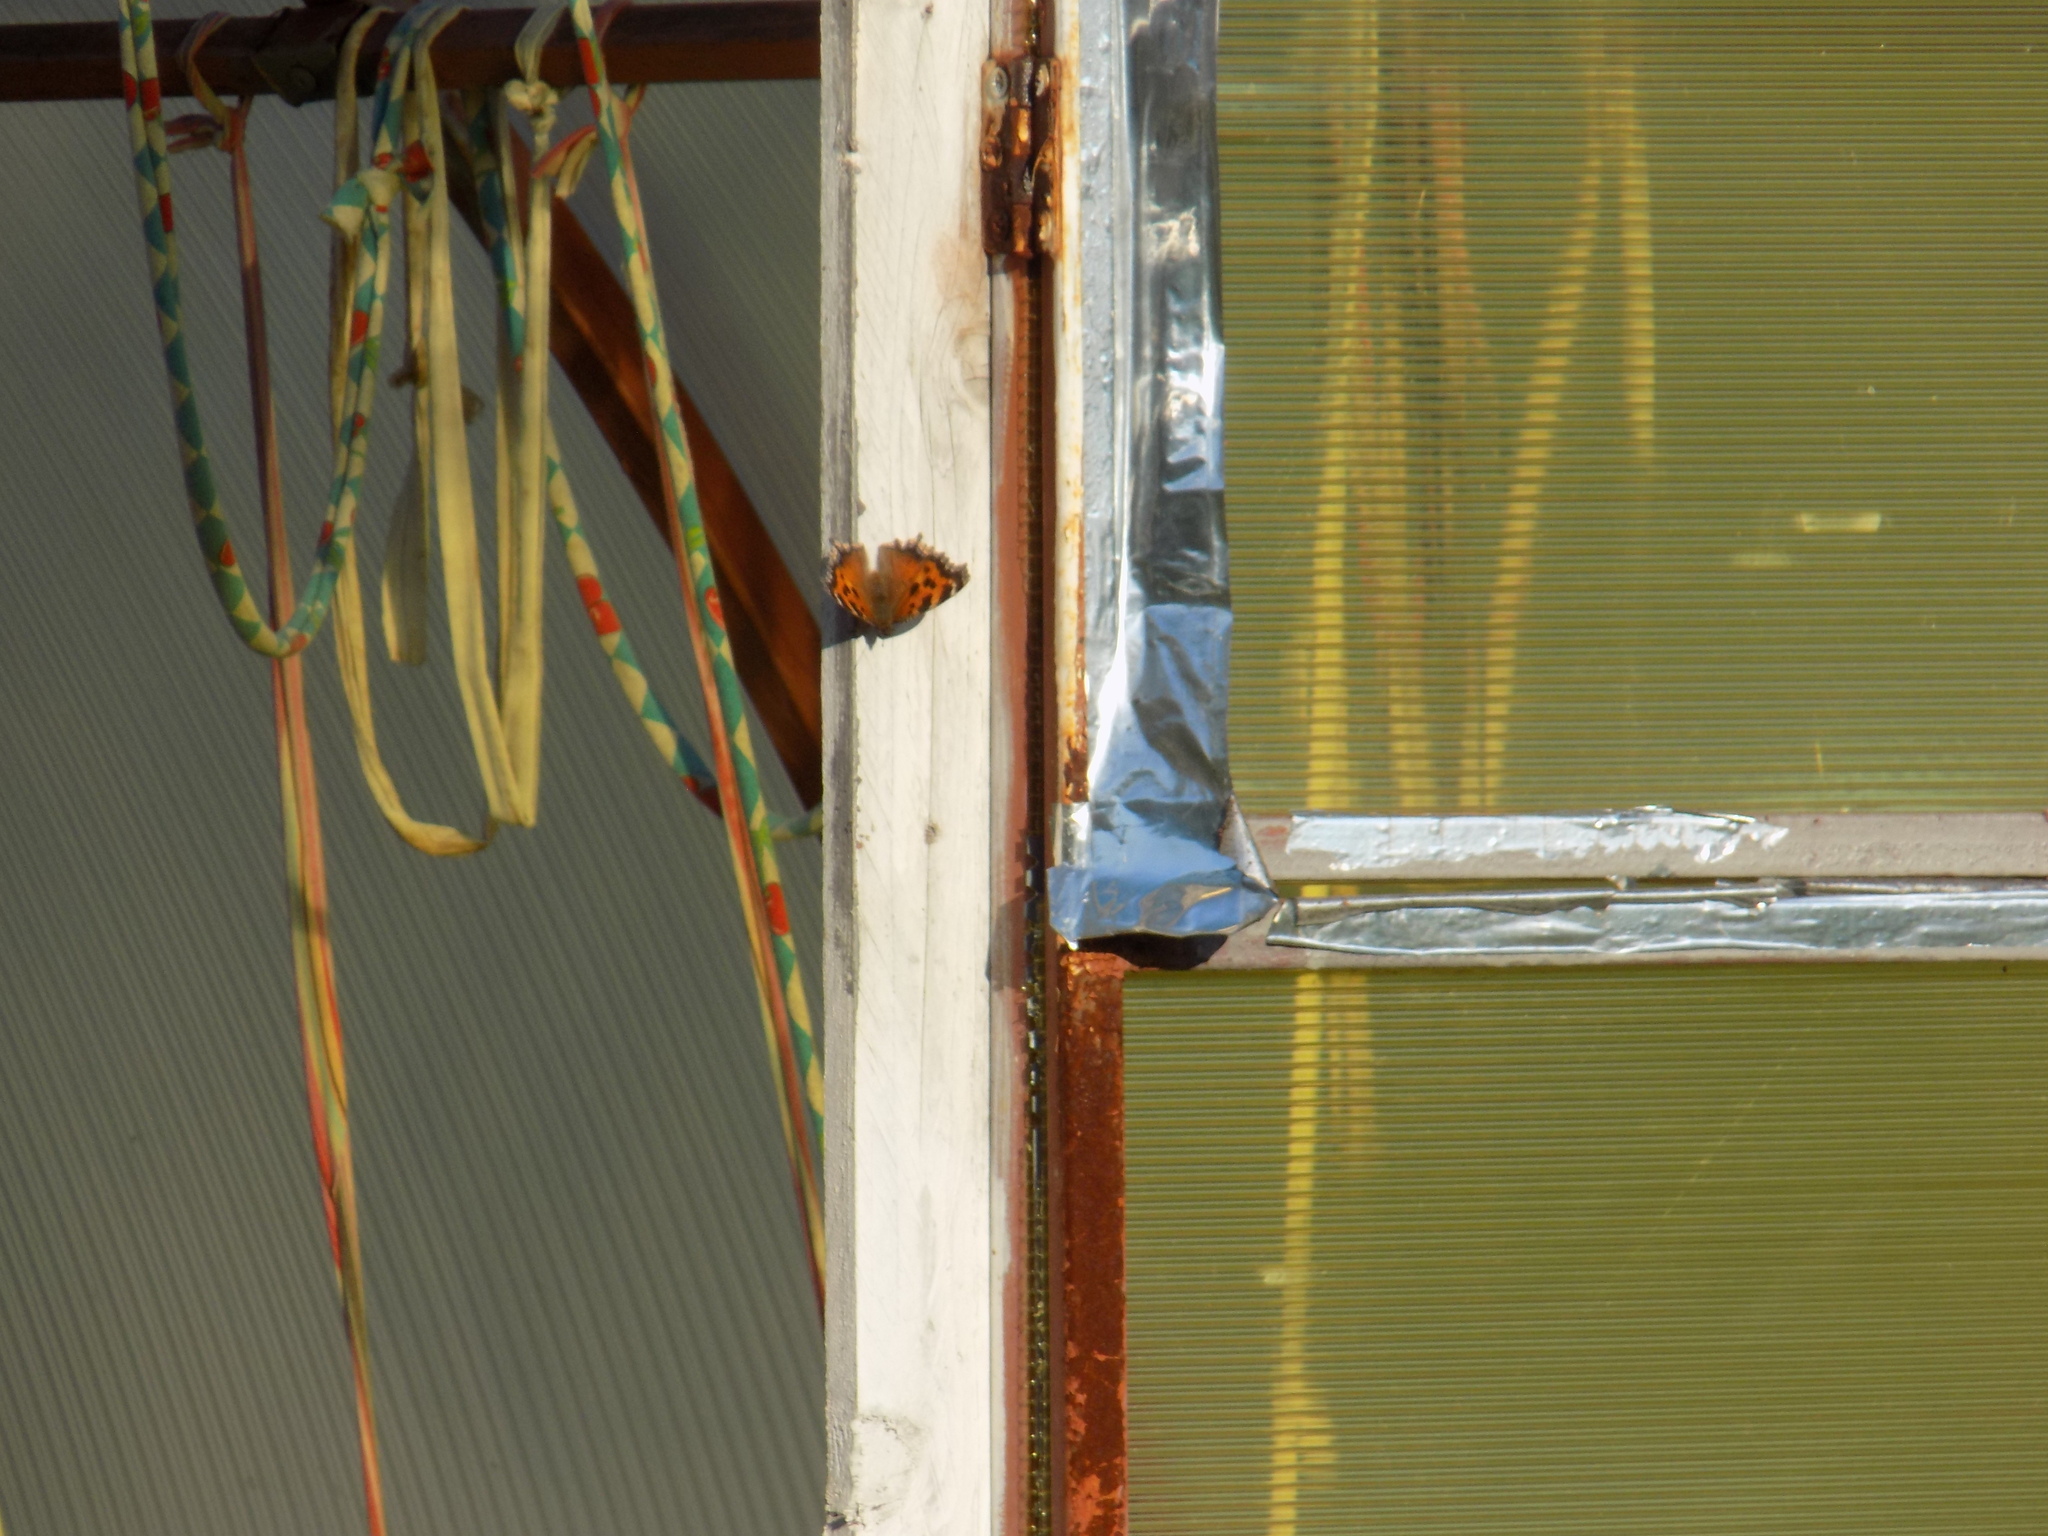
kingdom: Animalia
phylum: Arthropoda
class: Insecta
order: Lepidoptera
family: Nymphalidae
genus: Nymphalis
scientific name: Nymphalis xanthomelas
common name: Scarce tortoiseshell
